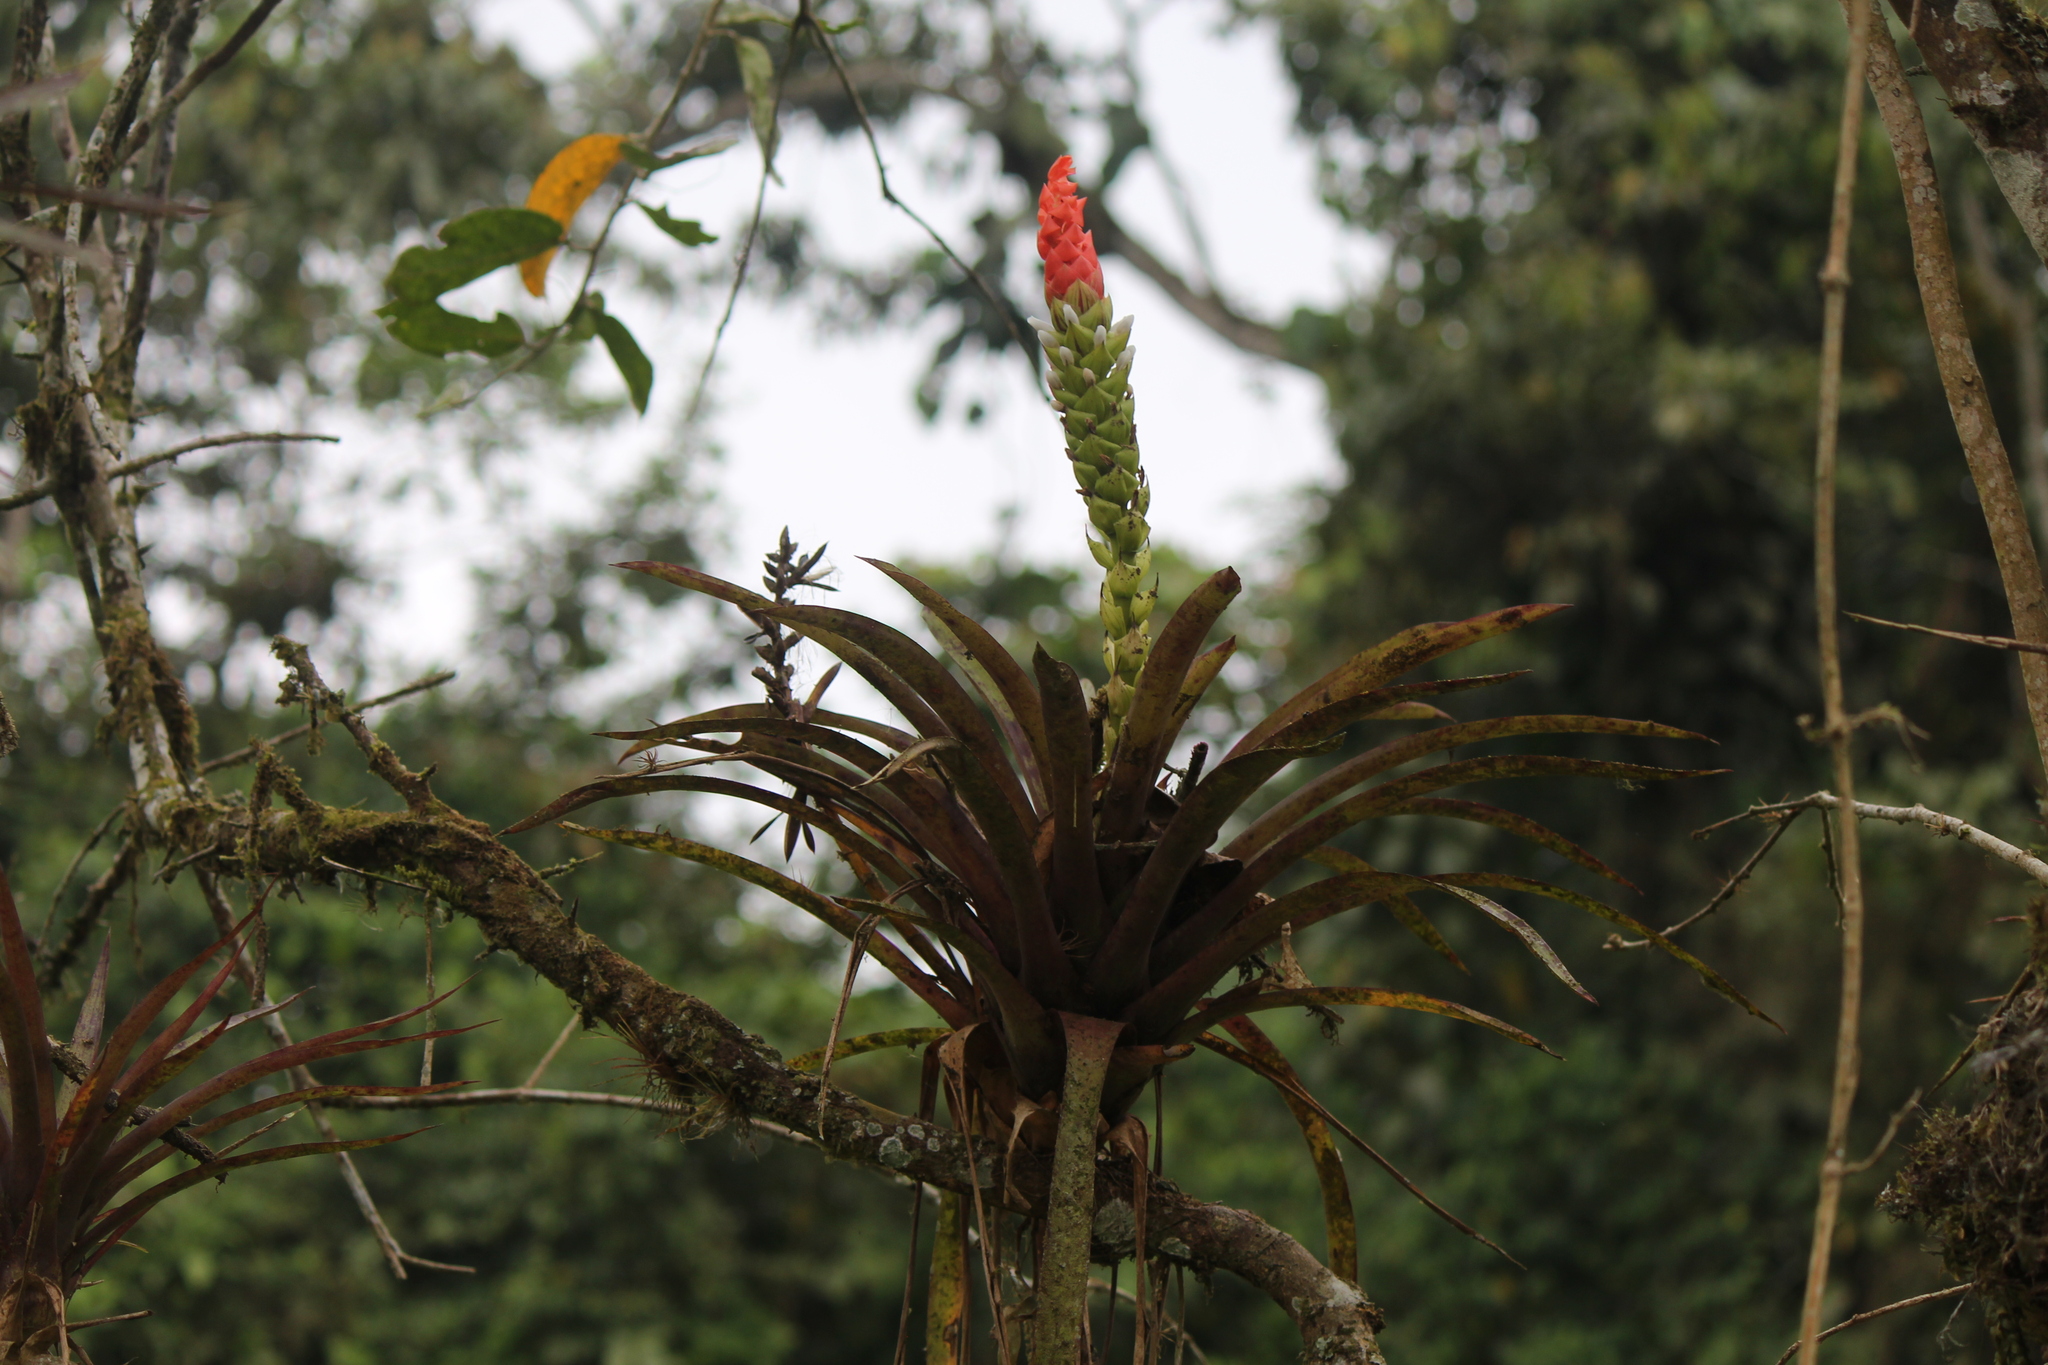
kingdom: Plantae
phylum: Tracheophyta
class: Liliopsida
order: Poales
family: Bromeliaceae
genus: Guzmania
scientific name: Guzmania monostachia
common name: West indian tufted airplant
